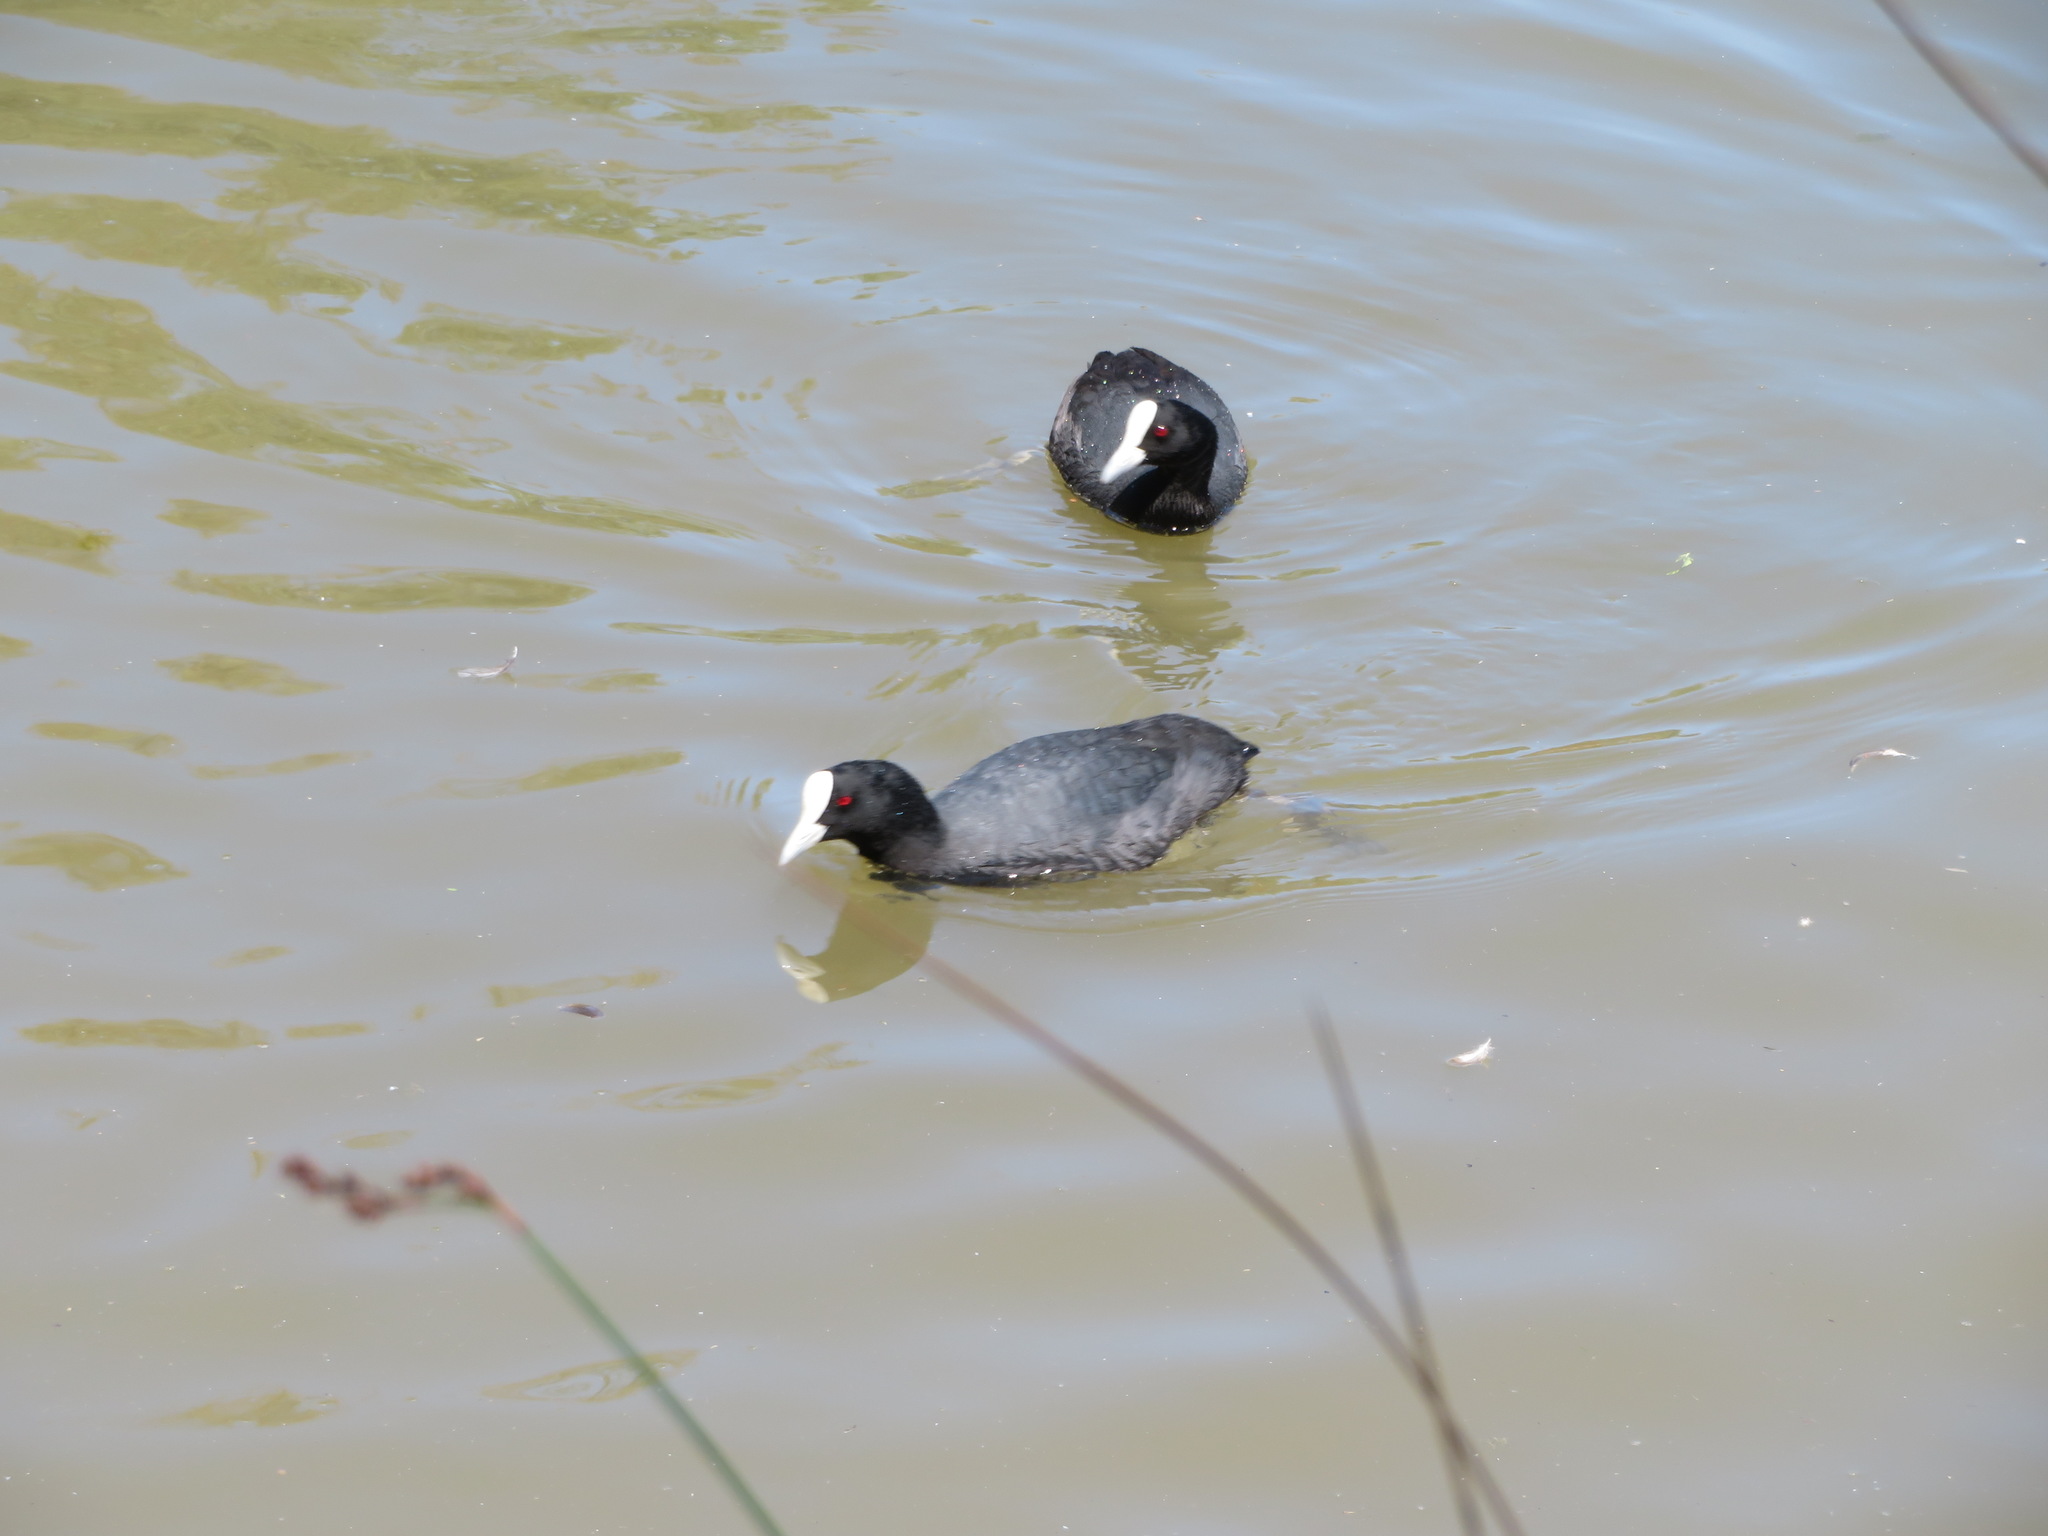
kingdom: Animalia
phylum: Chordata
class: Aves
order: Gruiformes
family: Rallidae
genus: Fulica
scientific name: Fulica atra
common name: Eurasian coot
